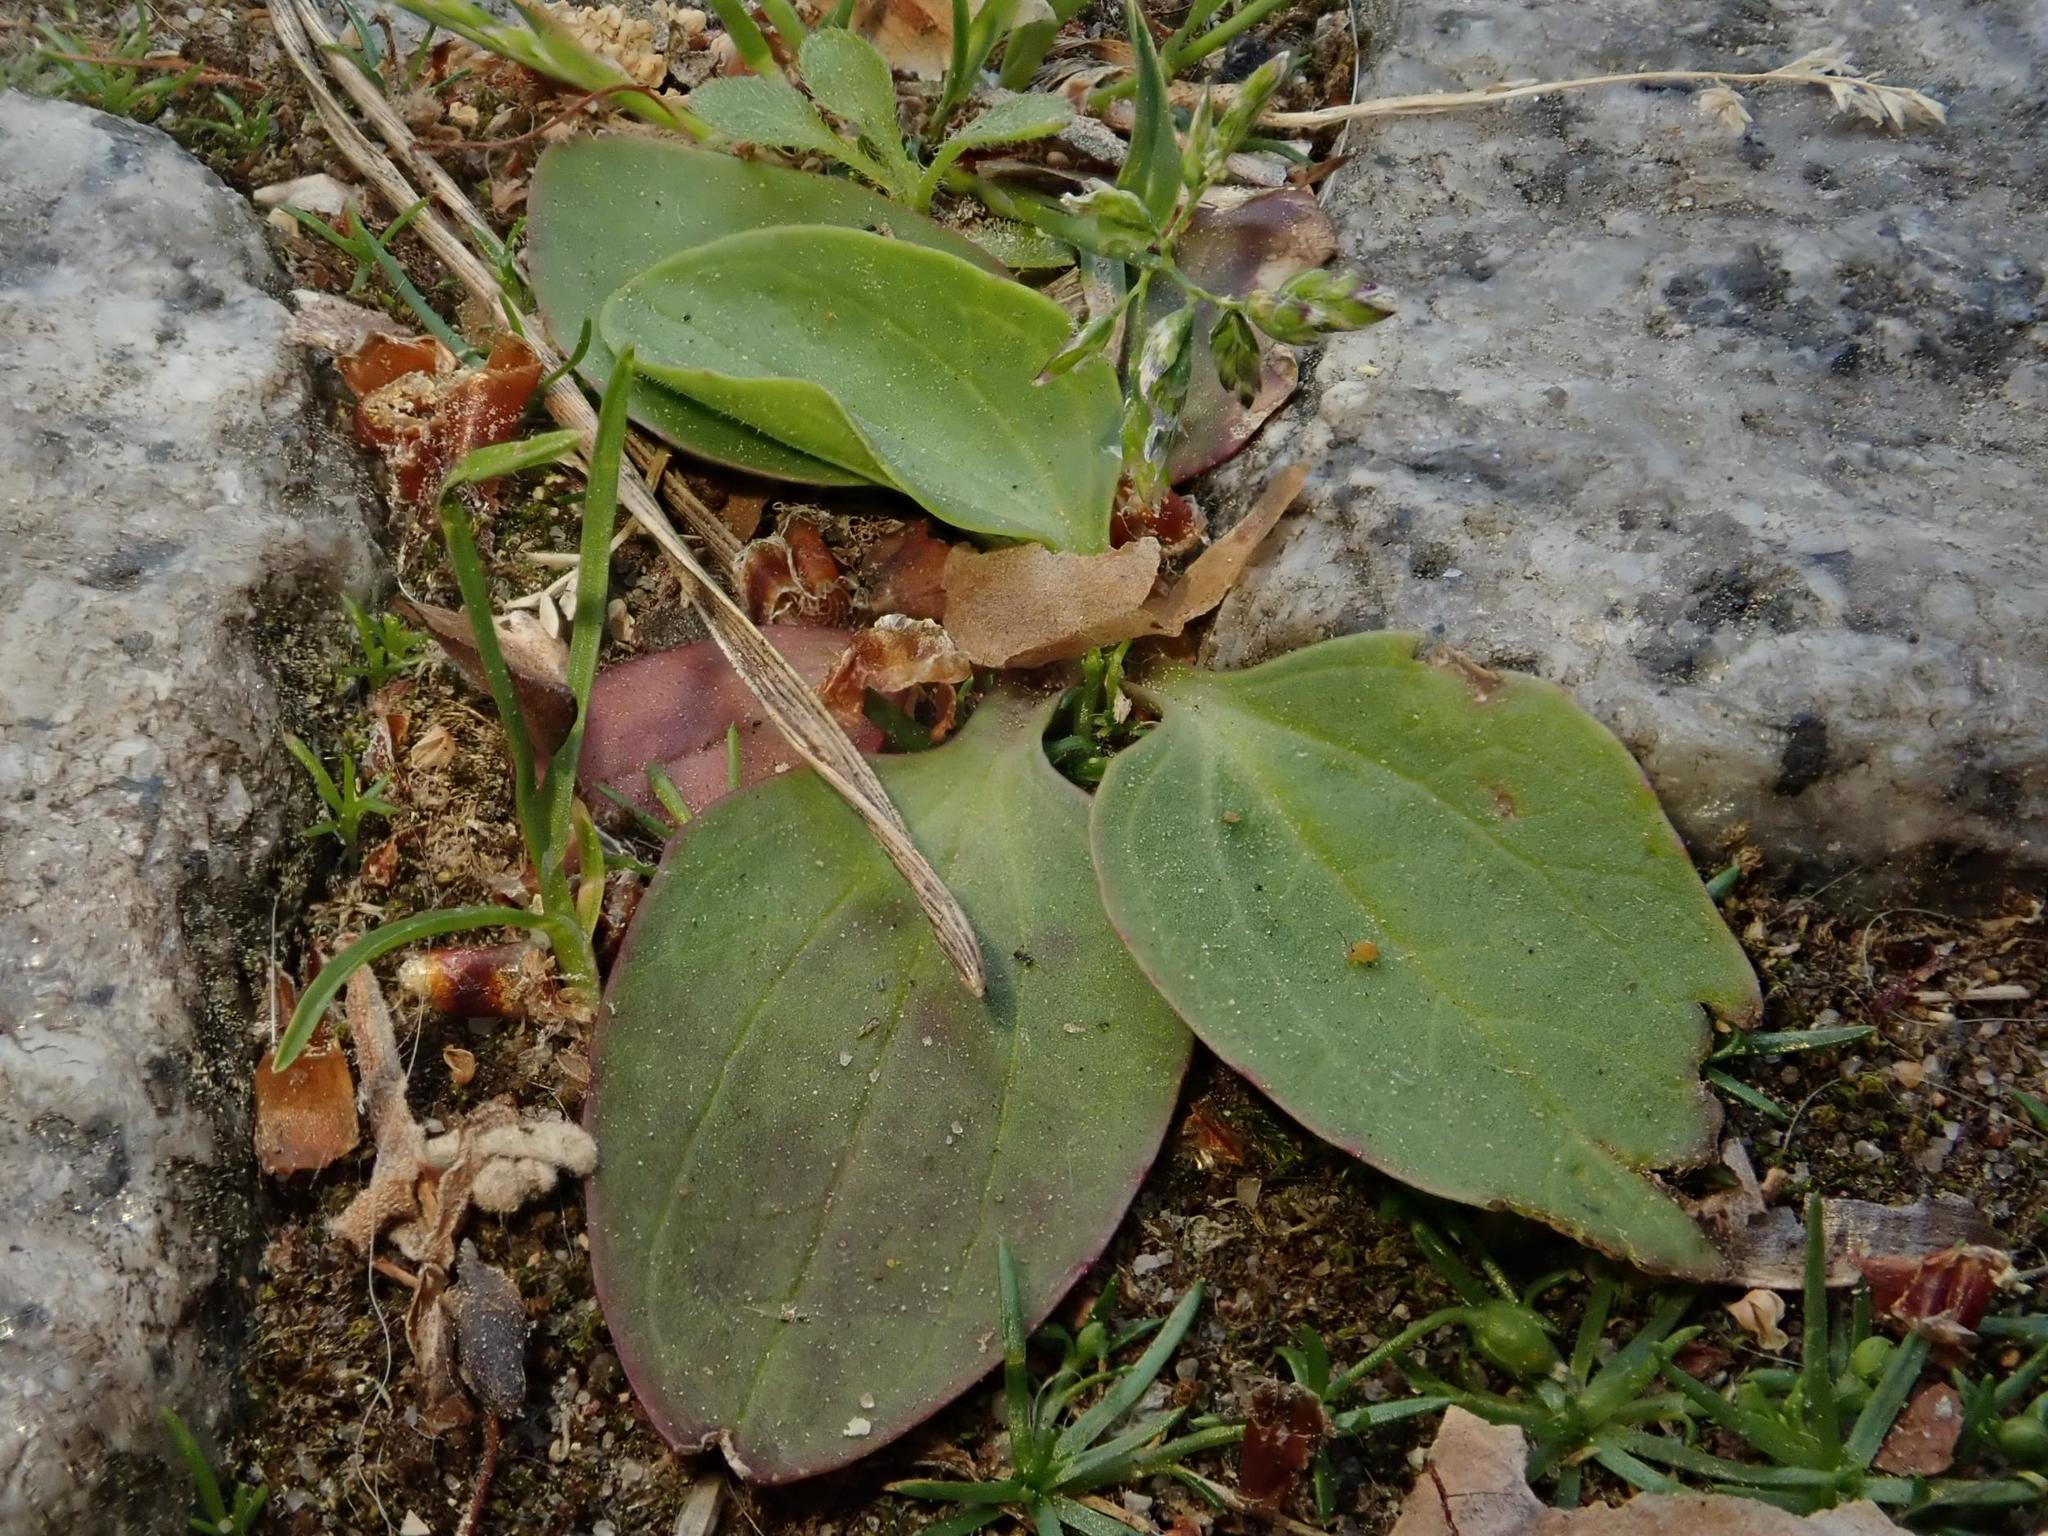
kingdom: Plantae
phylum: Tracheophyta
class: Magnoliopsida
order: Lamiales
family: Plantaginaceae
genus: Plantago
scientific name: Plantago major
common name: Common plantain
